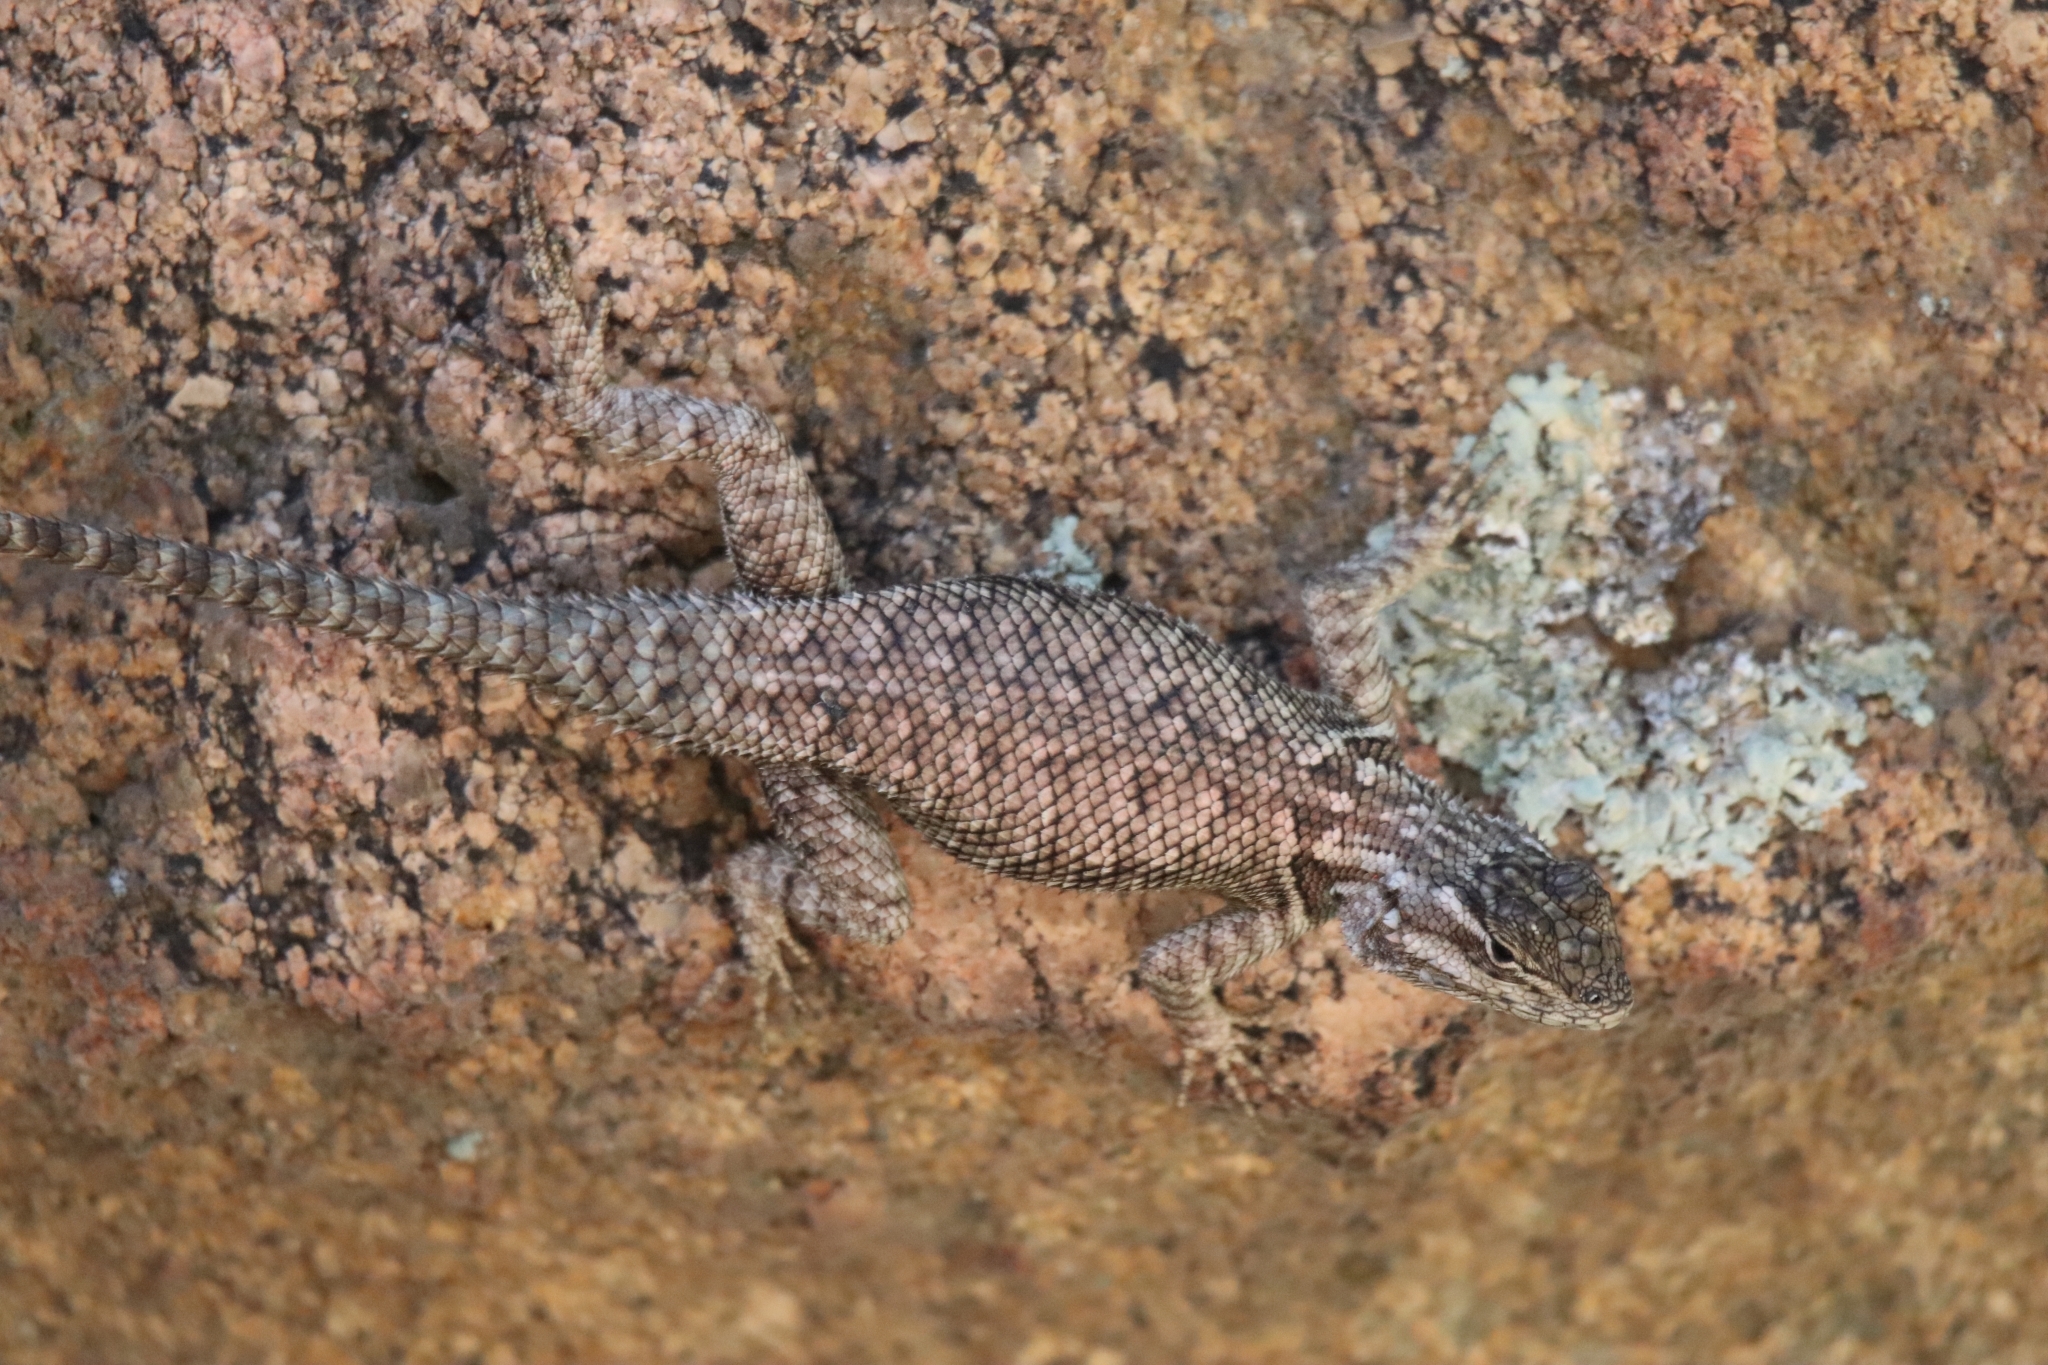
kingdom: Animalia
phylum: Chordata
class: Squamata
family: Phrynosomatidae
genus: Sceloporus
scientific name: Sceloporus jarrovii
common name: Yarrow's spiny lizard
